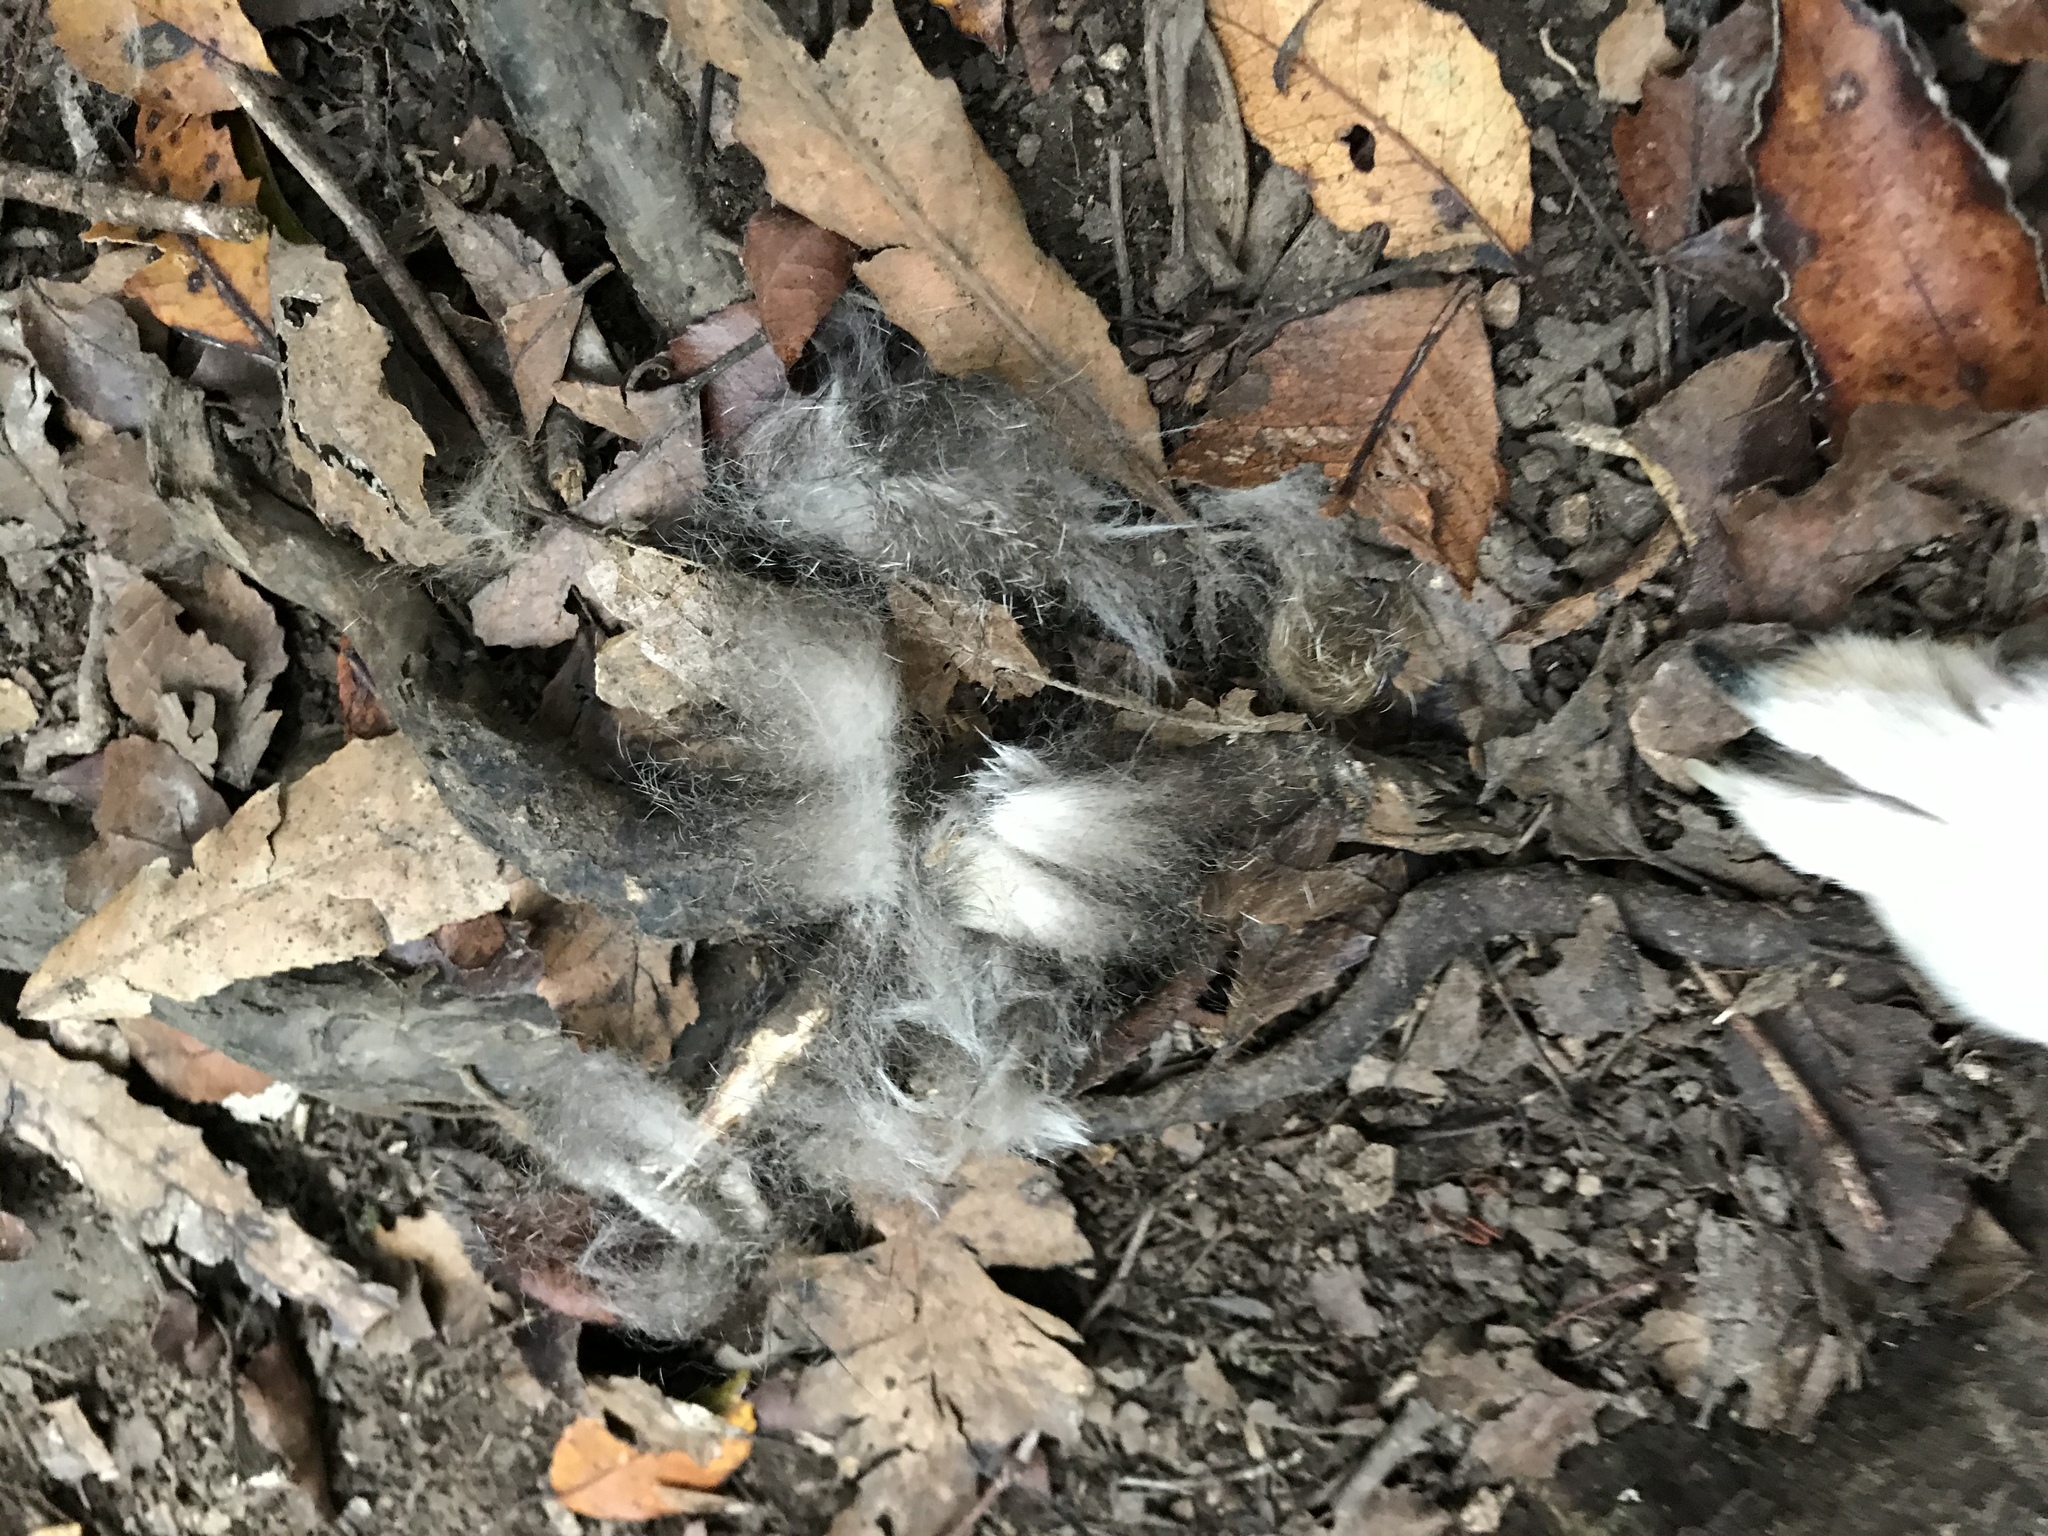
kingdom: Animalia
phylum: Chordata
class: Mammalia
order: Diprotodontia
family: Phalangeridae
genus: Trichosurus
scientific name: Trichosurus vulpecula
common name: Common brushtail
